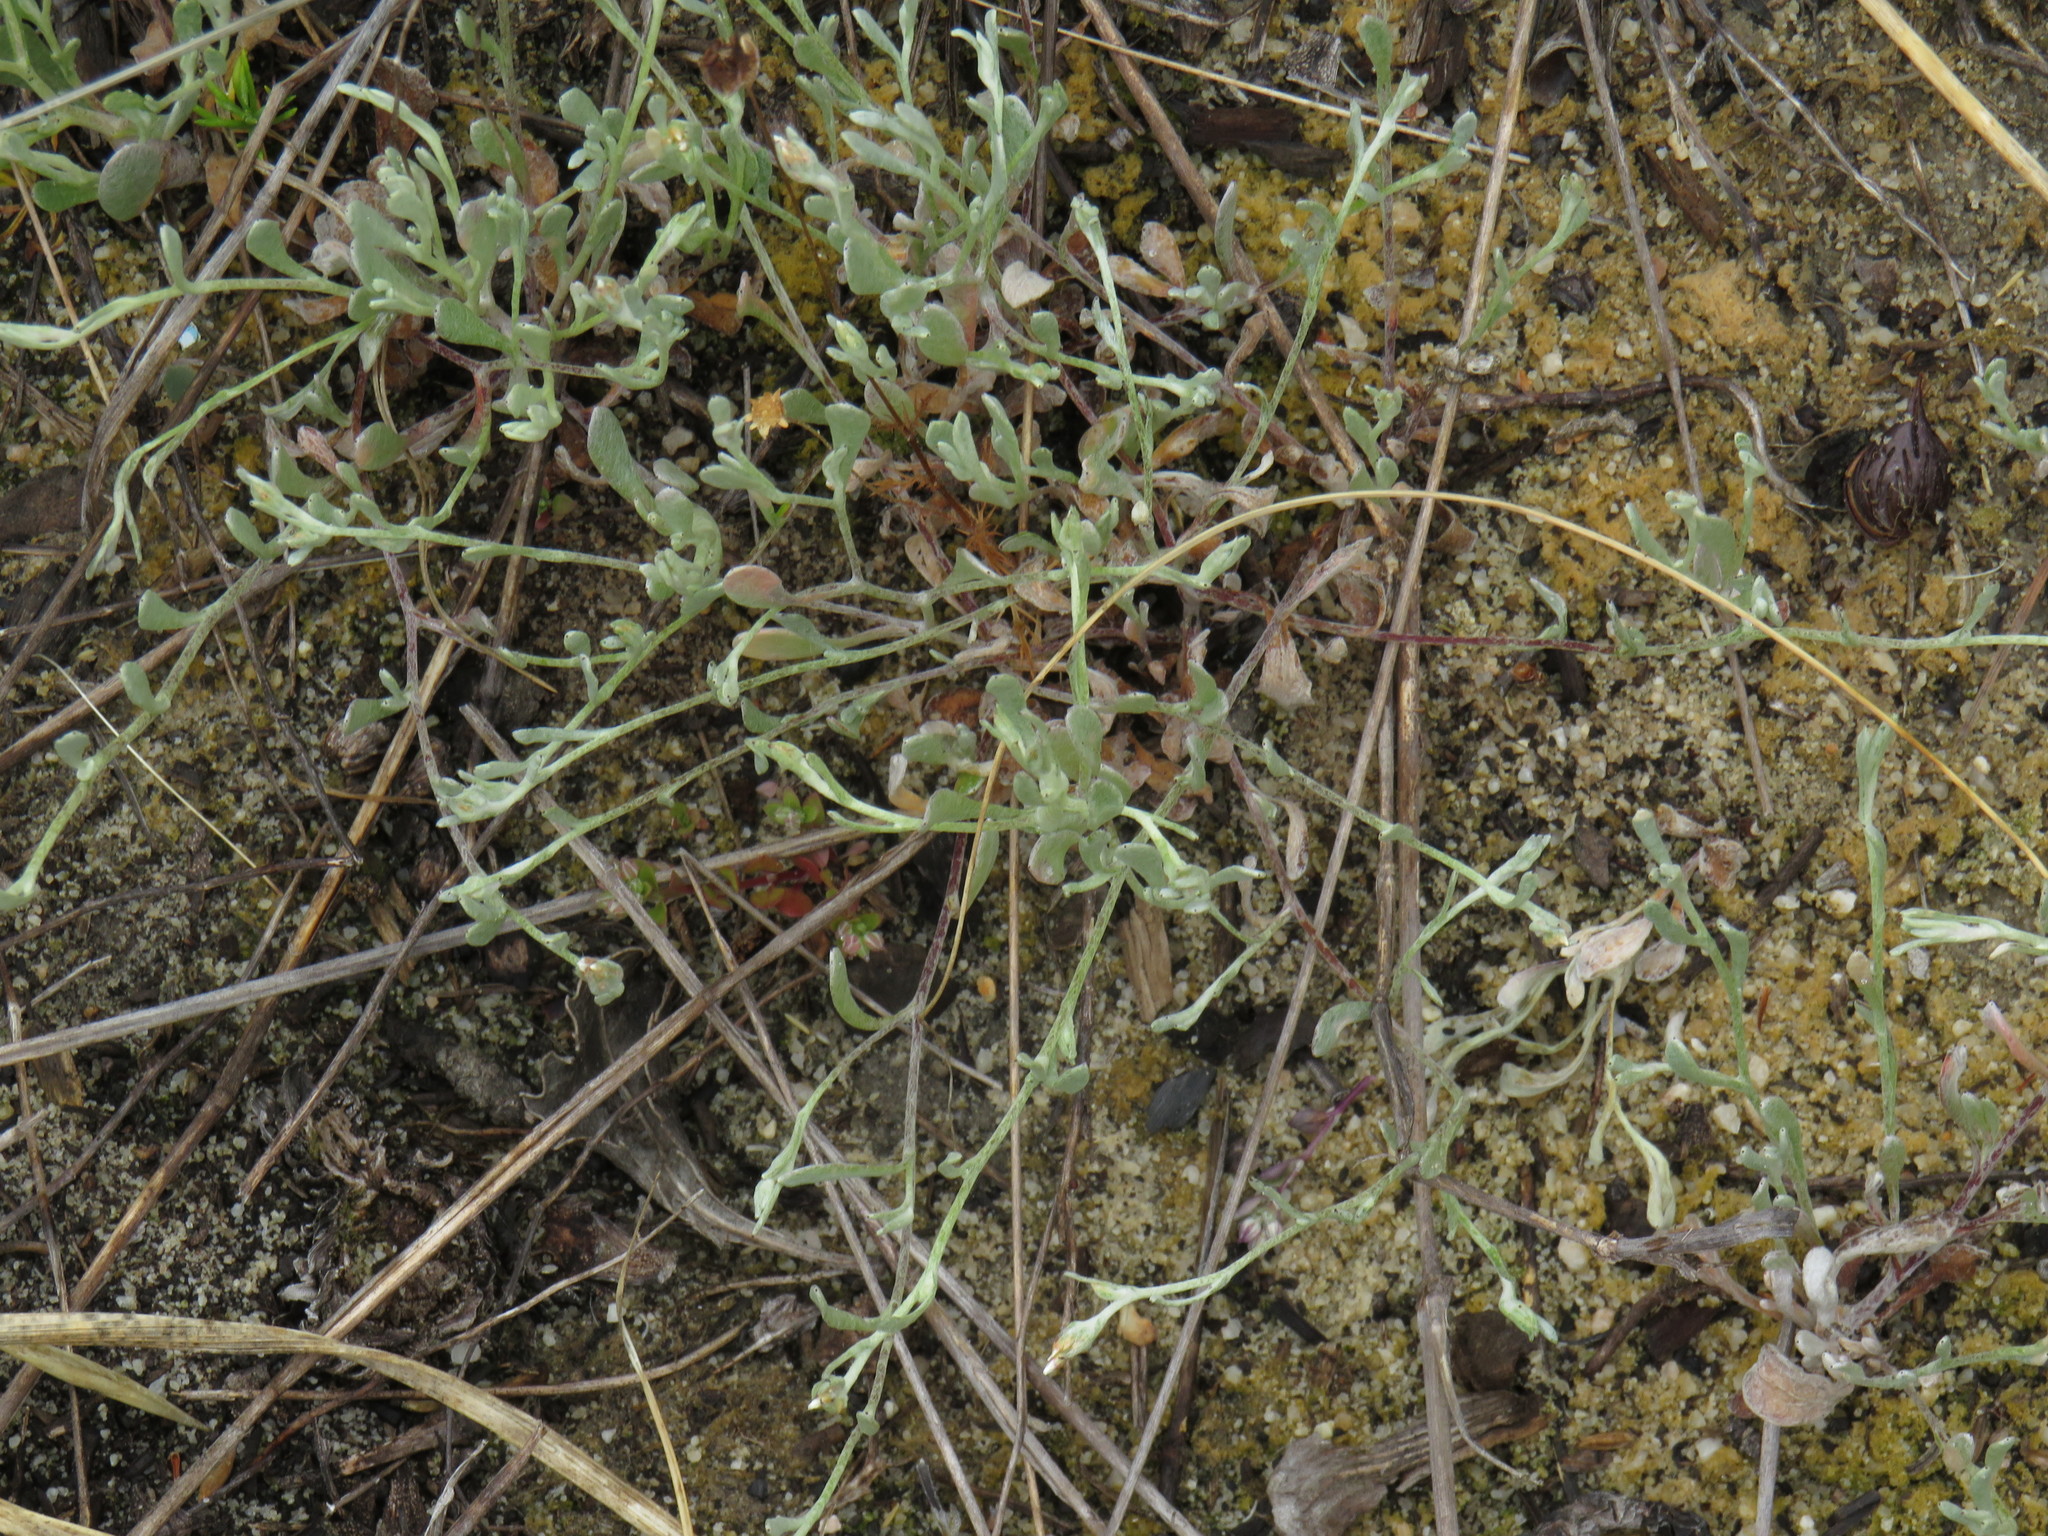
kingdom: Plantae
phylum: Tracheophyta
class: Magnoliopsida
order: Asterales
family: Asteraceae
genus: Helichrysum
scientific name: Helichrysum indicum
